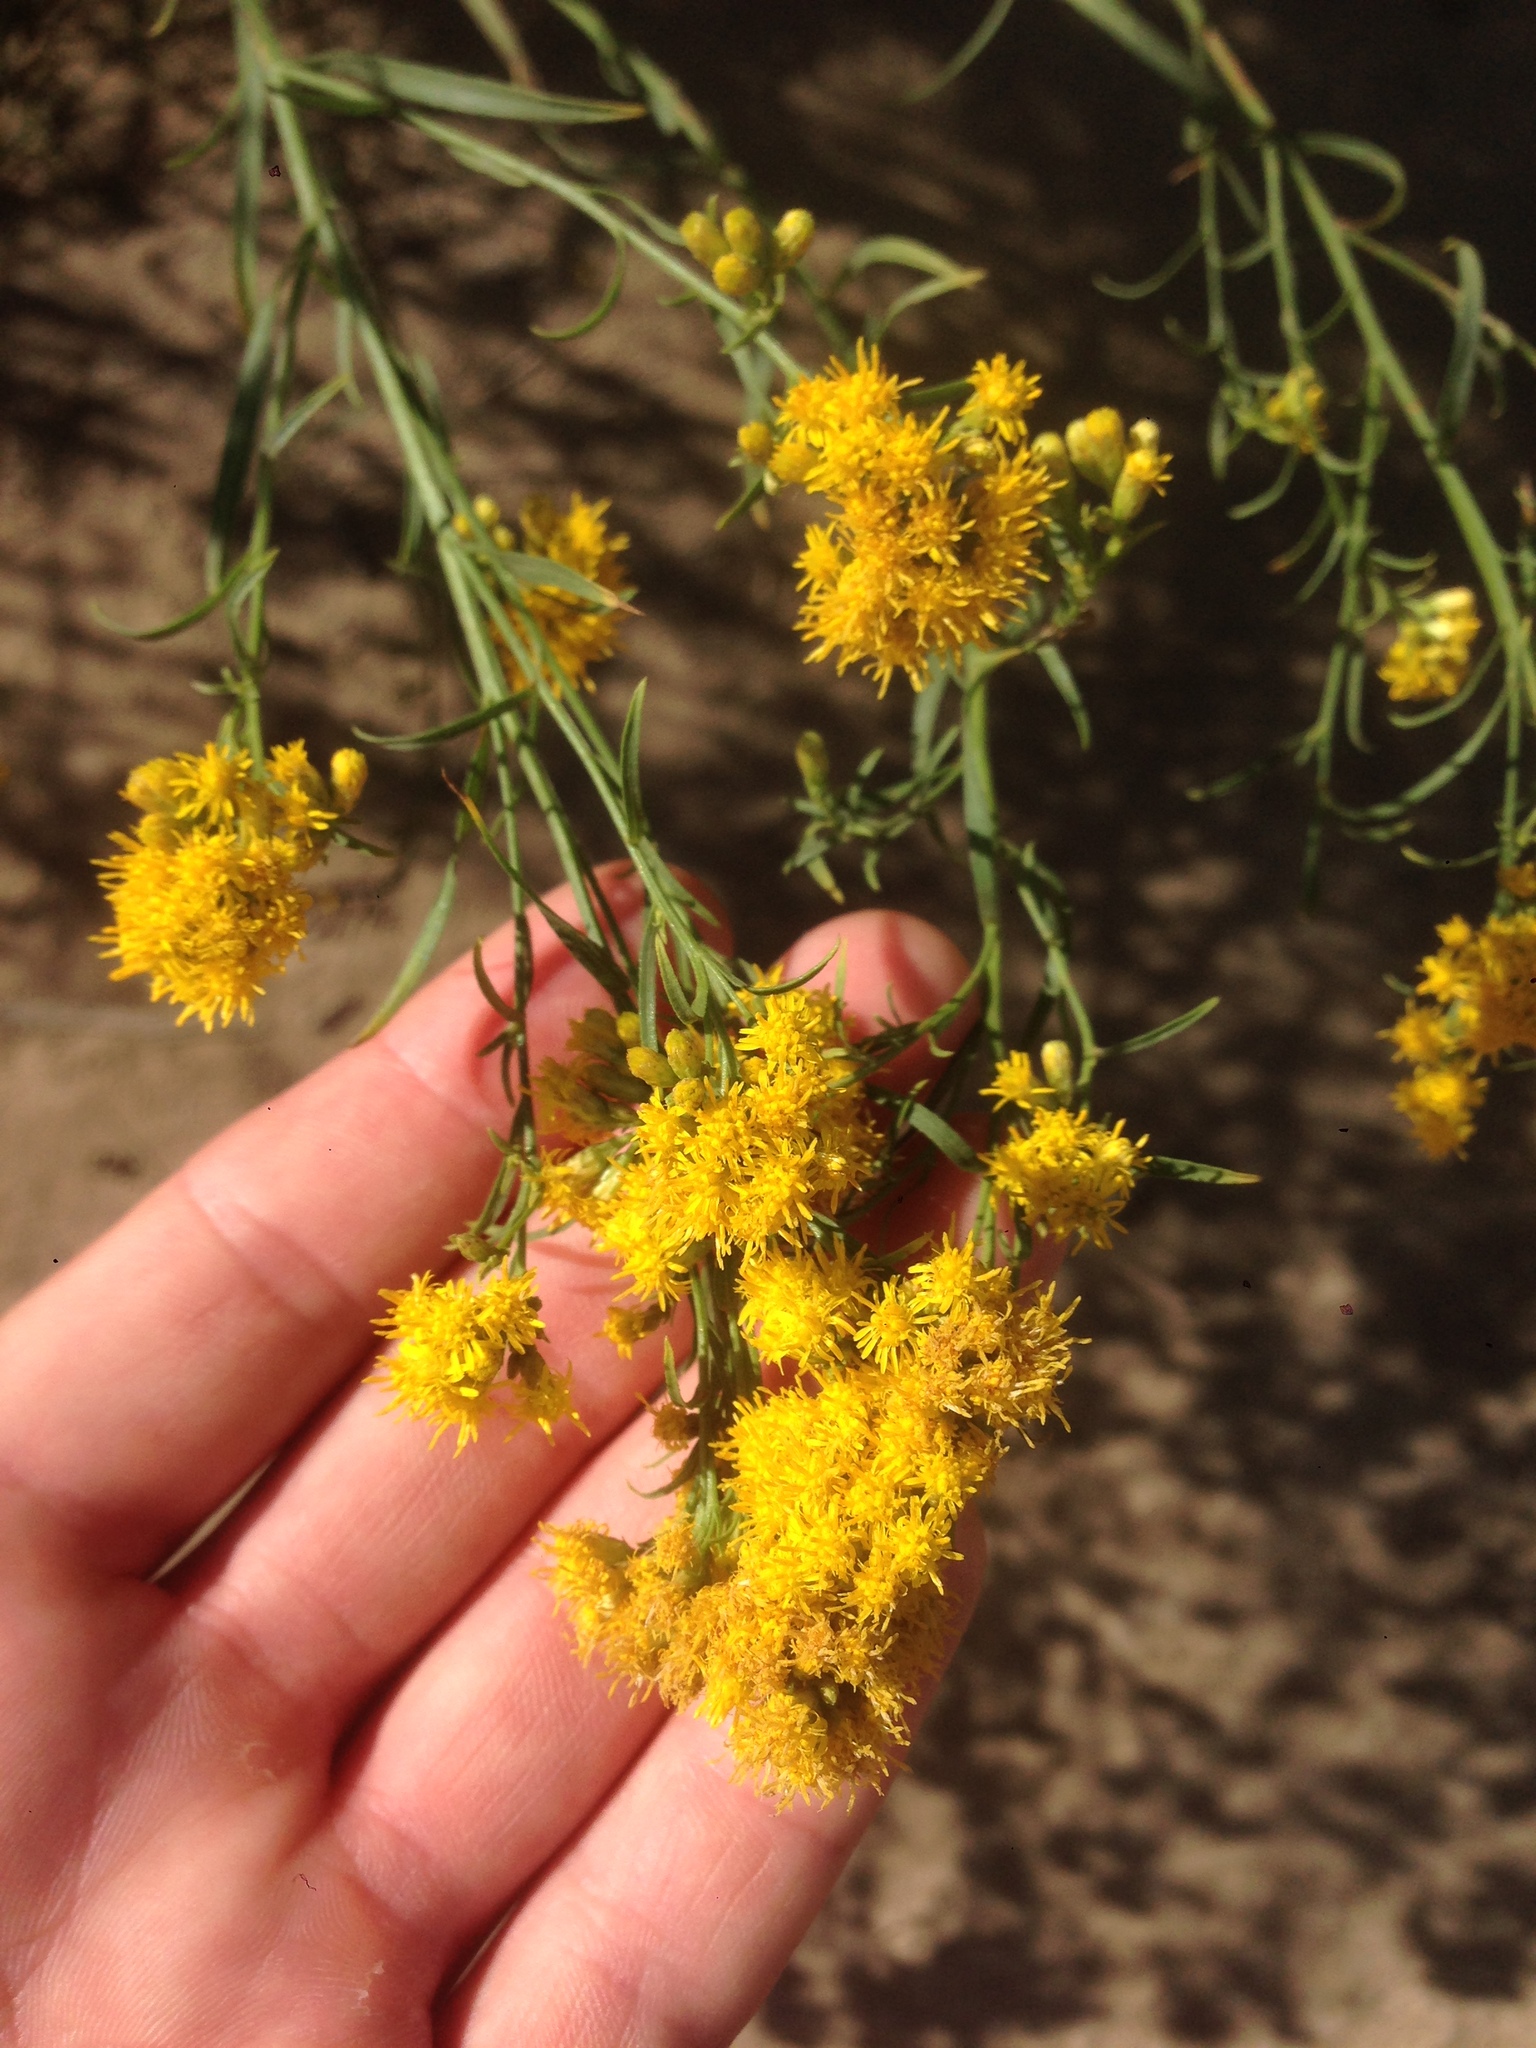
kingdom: Plantae
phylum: Tracheophyta
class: Magnoliopsida
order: Asterales
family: Asteraceae
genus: Euthamia
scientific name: Euthamia occidentalis
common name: Western goldentop
